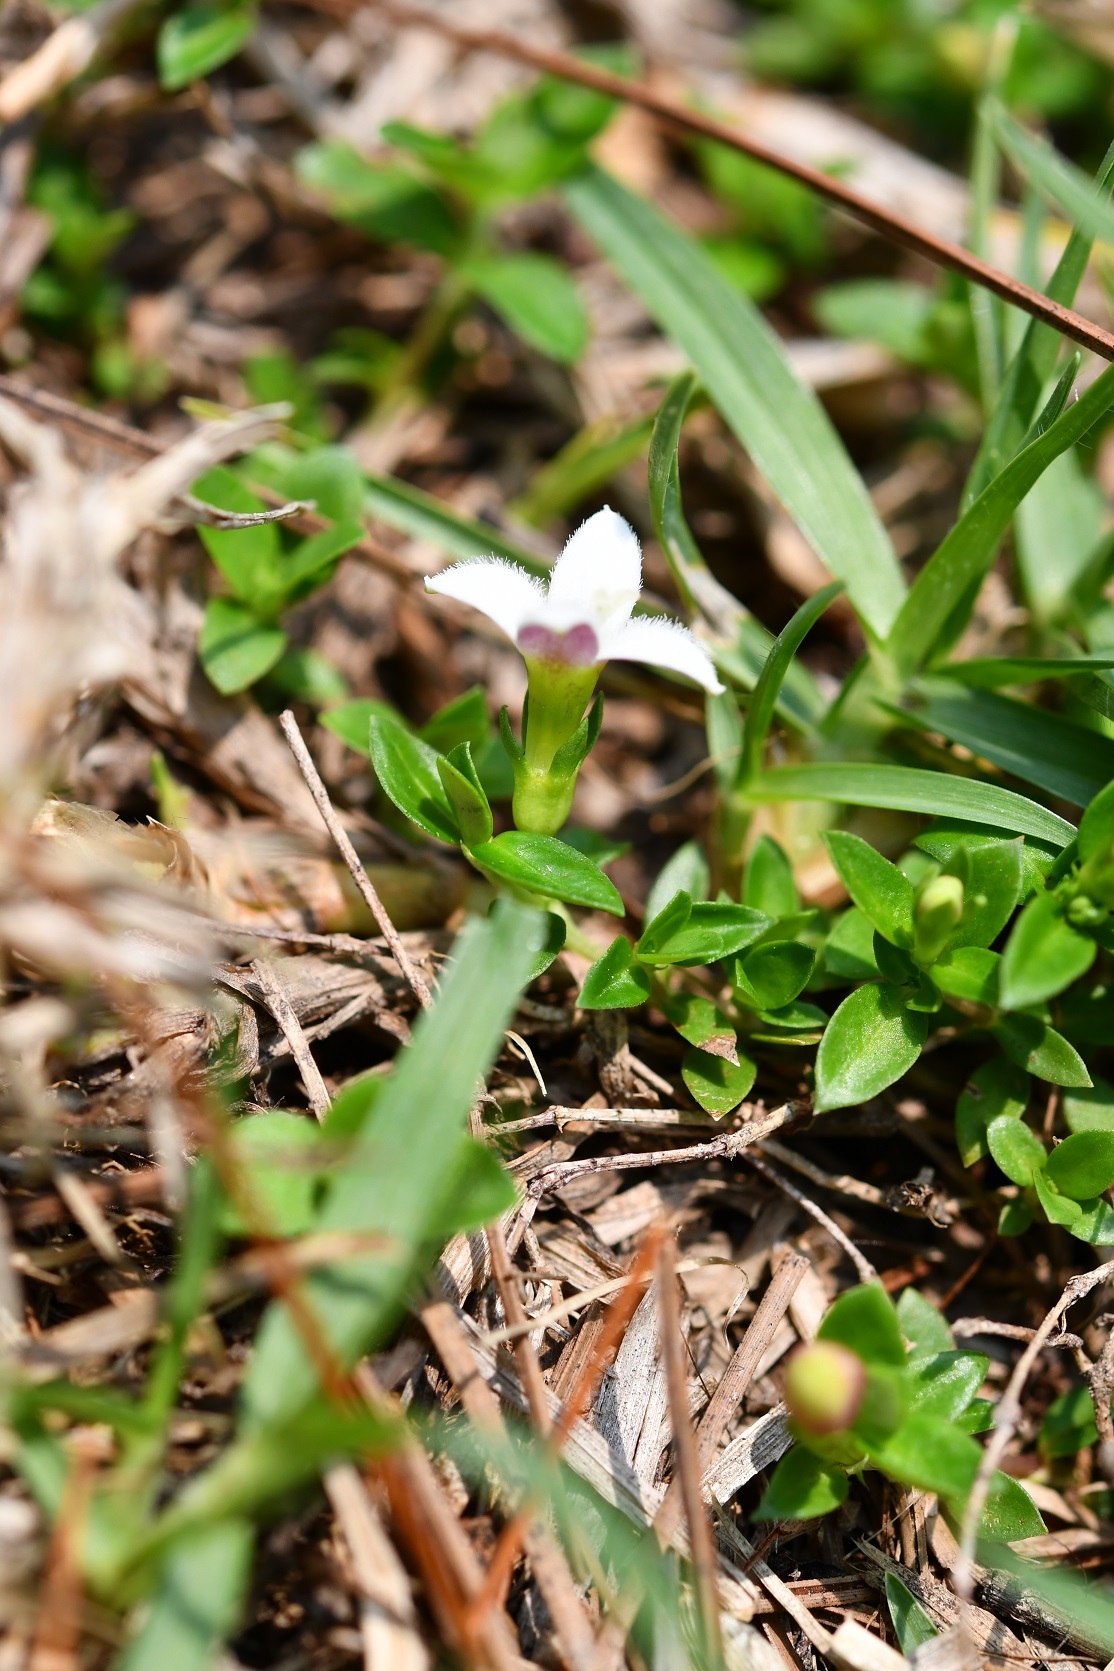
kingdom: Plantae
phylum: Tracheophyta
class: Magnoliopsida
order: Gentianales
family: Rubiaceae
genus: Arcytophyllum
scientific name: Arcytophyllum serpyllaceum
